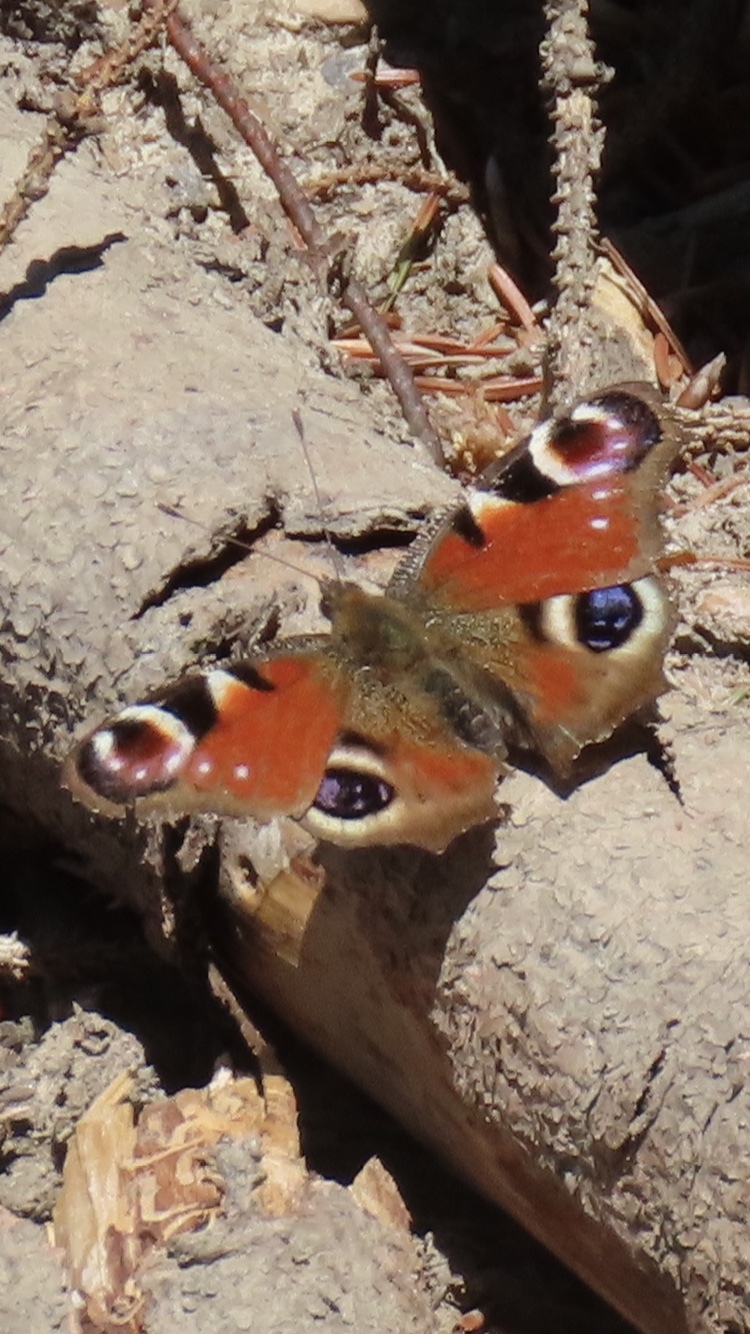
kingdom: Animalia
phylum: Arthropoda
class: Insecta
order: Lepidoptera
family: Nymphalidae
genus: Aglais
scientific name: Aglais io
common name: Peacock
